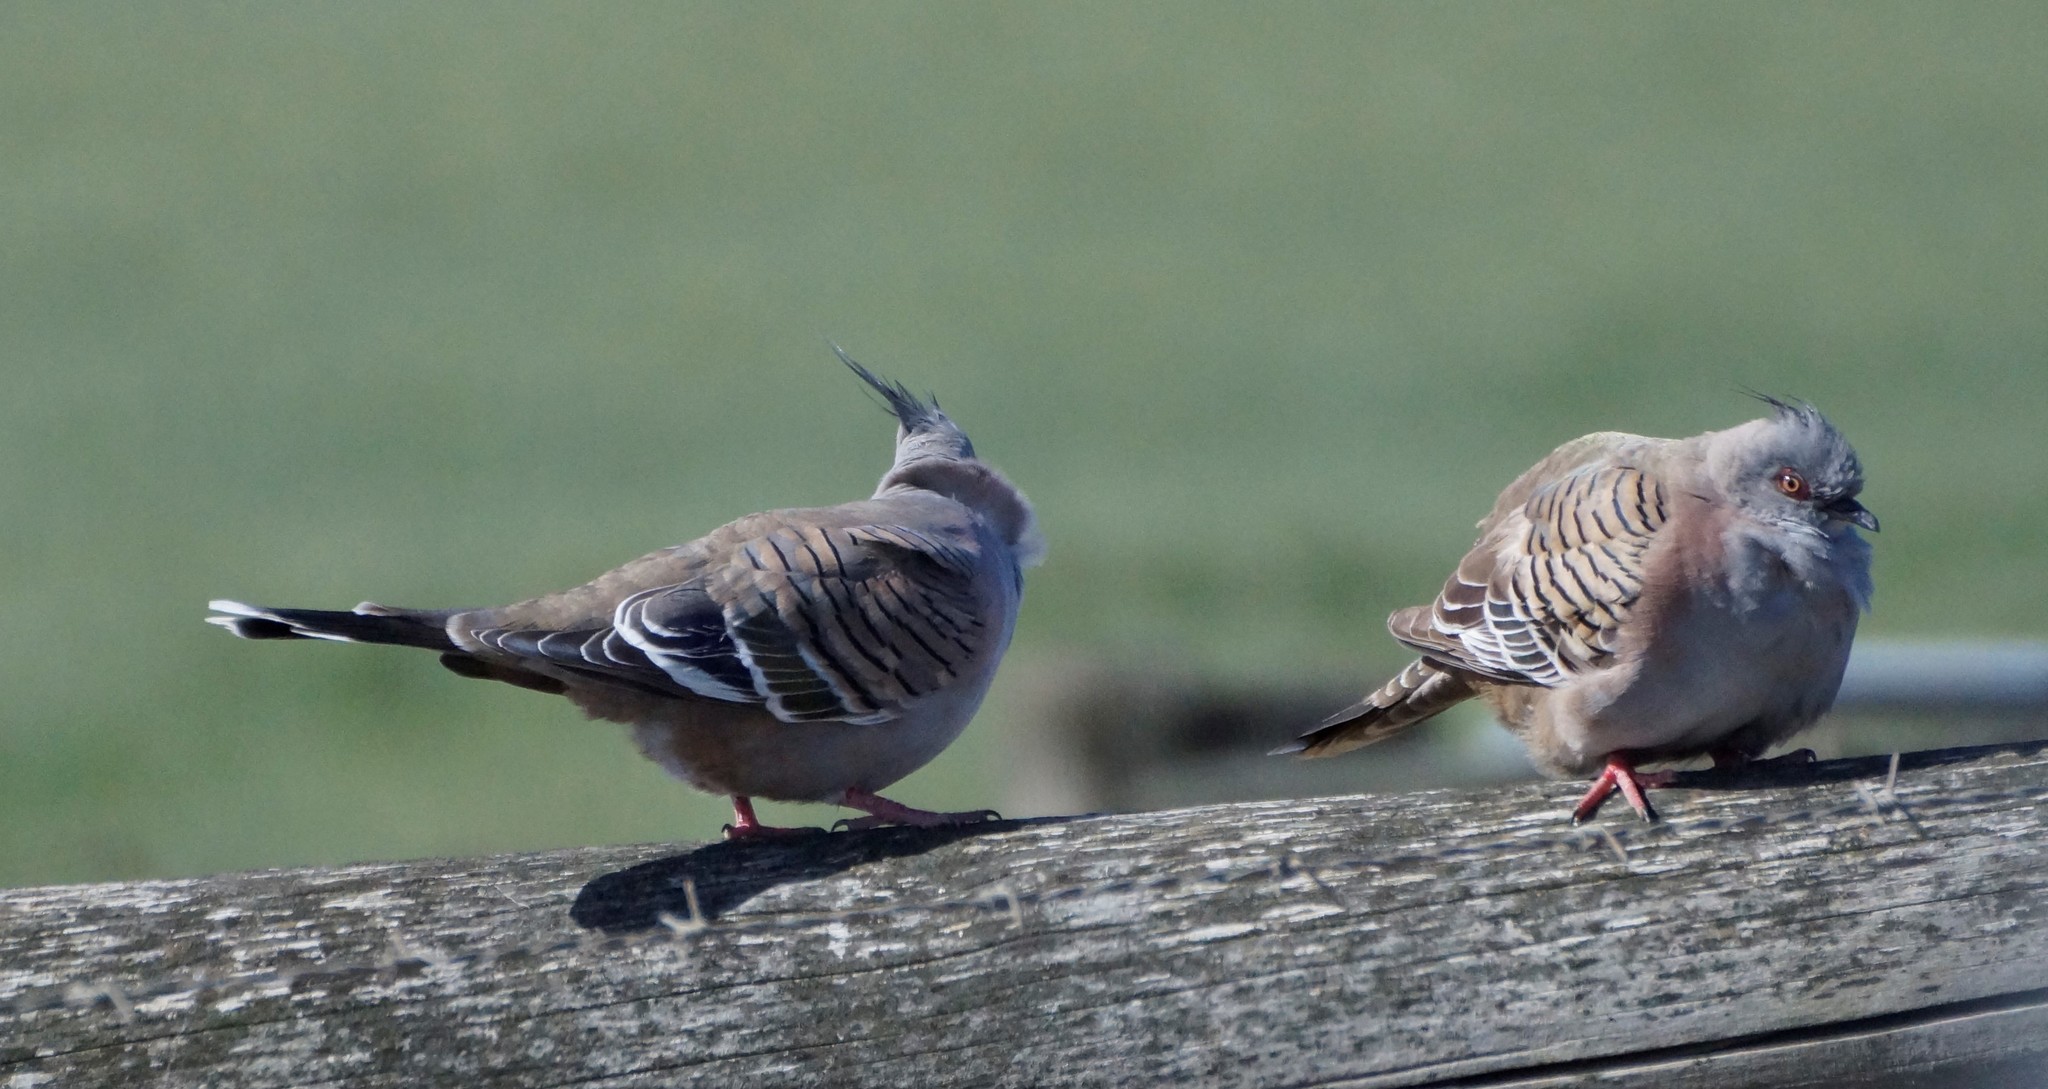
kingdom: Animalia
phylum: Chordata
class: Aves
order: Columbiformes
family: Columbidae
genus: Ocyphaps
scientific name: Ocyphaps lophotes
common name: Crested pigeon
